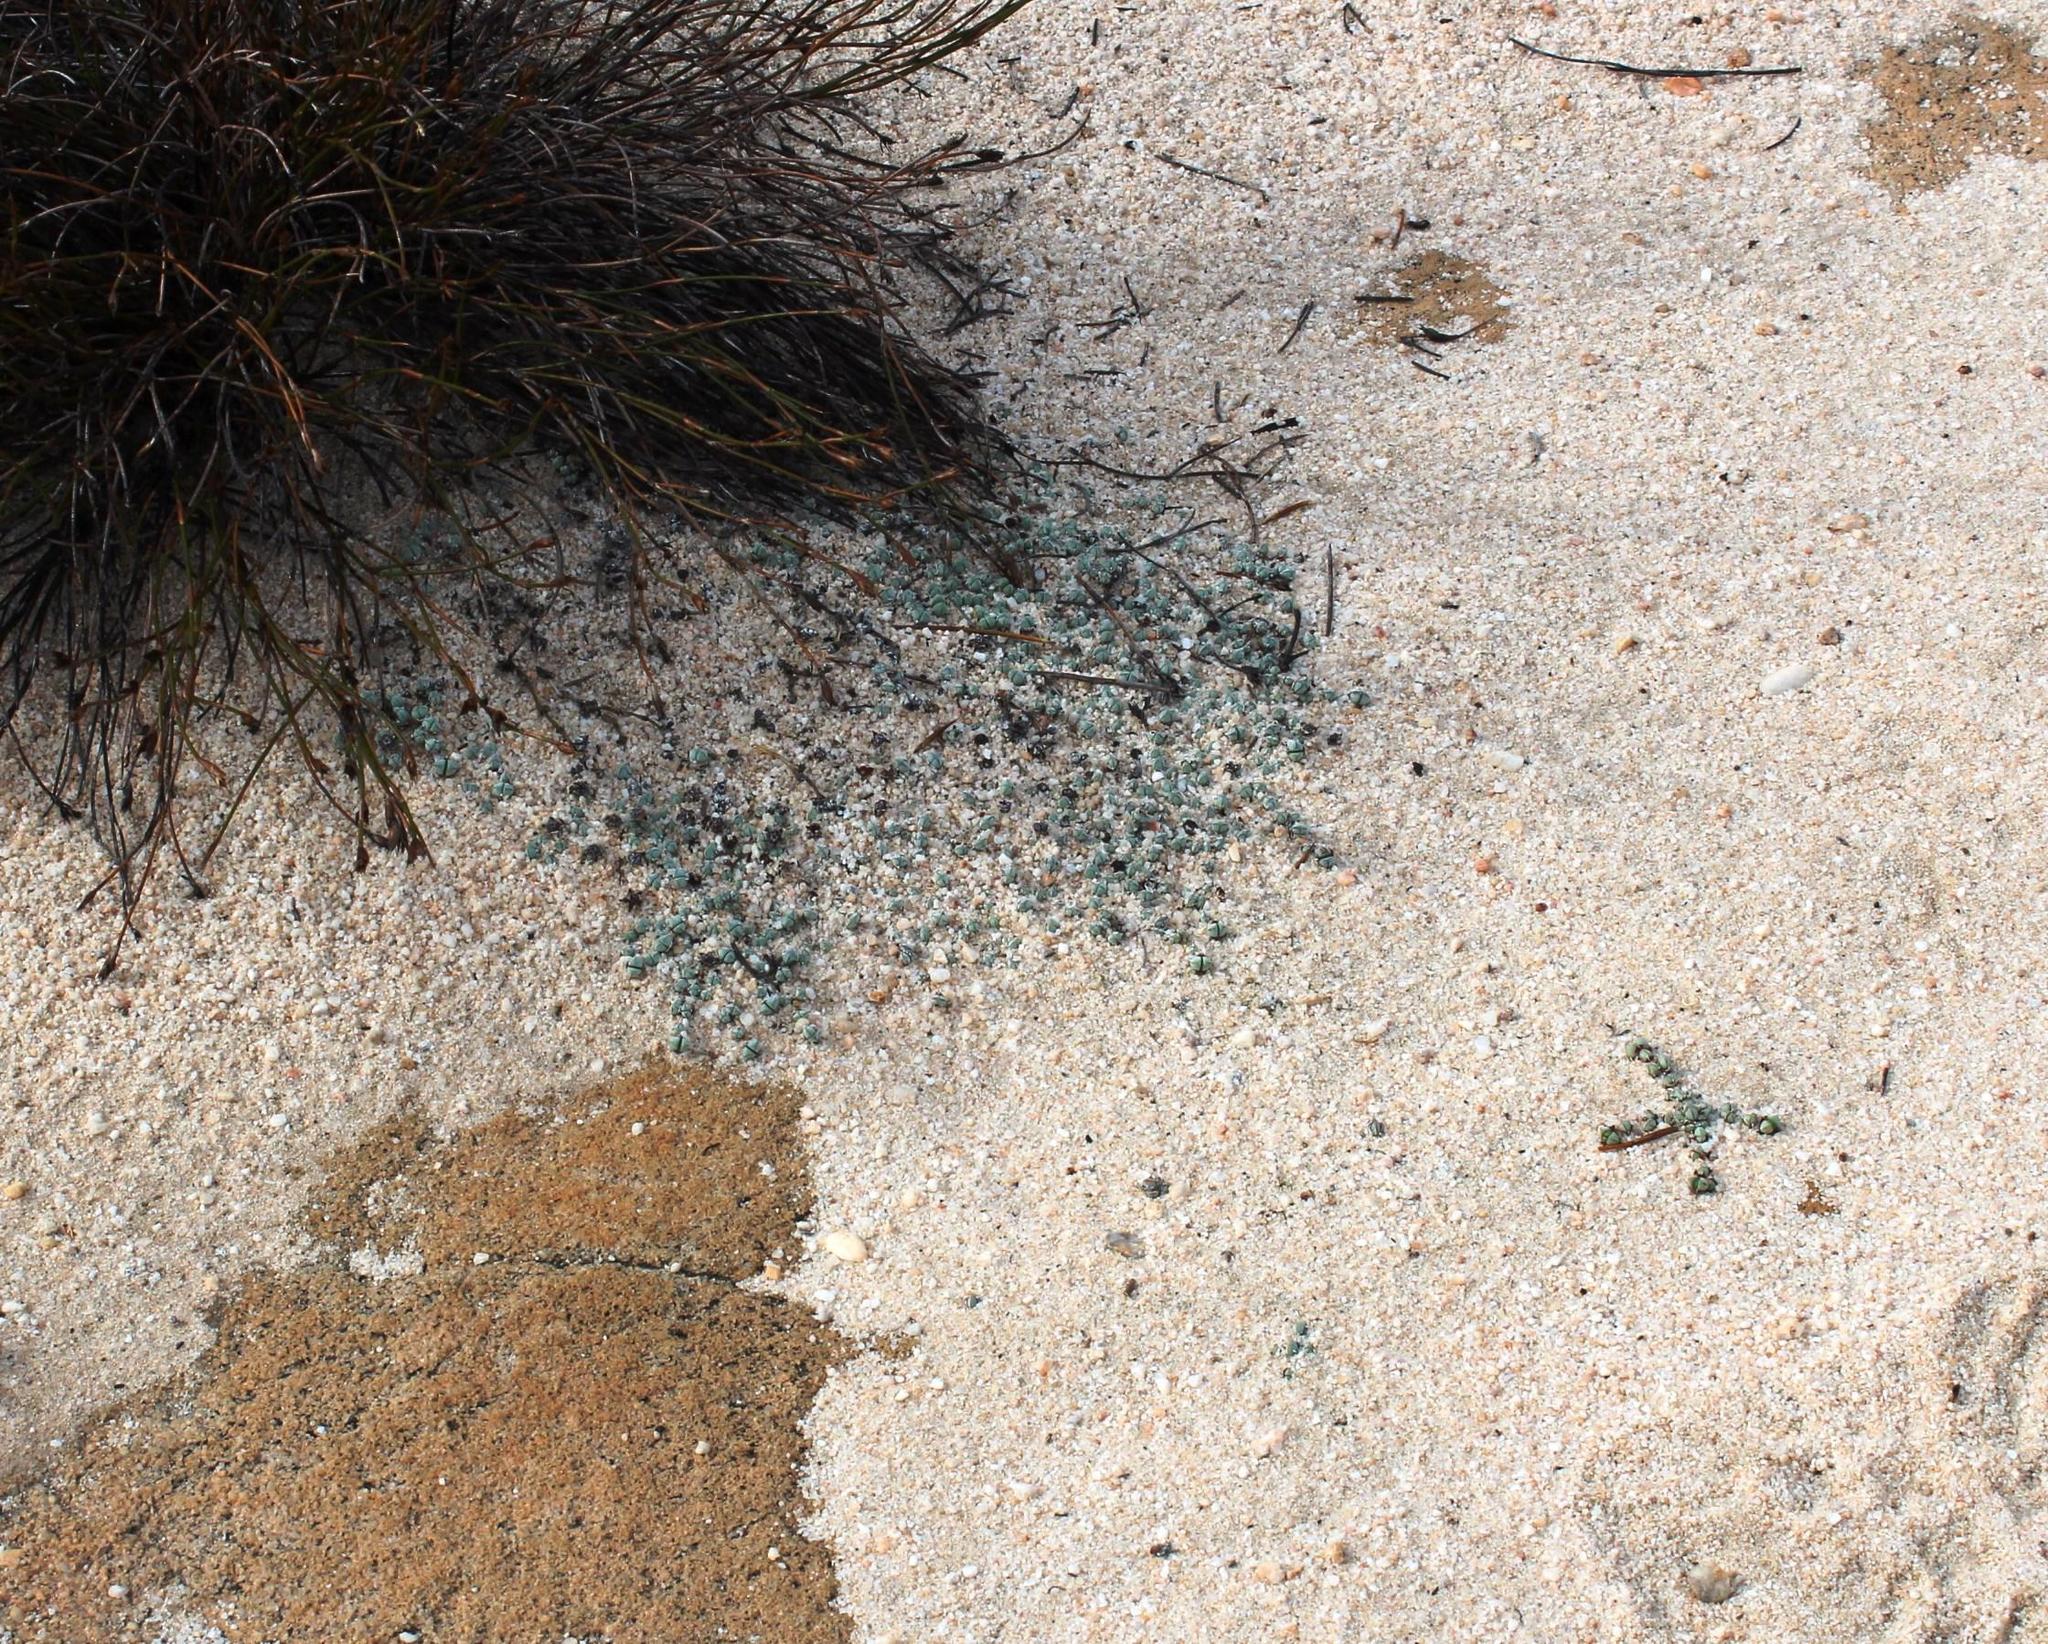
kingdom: Plantae
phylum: Tracheophyta
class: Magnoliopsida
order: Caryophyllales
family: Aizoaceae
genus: Braunsia
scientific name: Braunsia maximiliani
